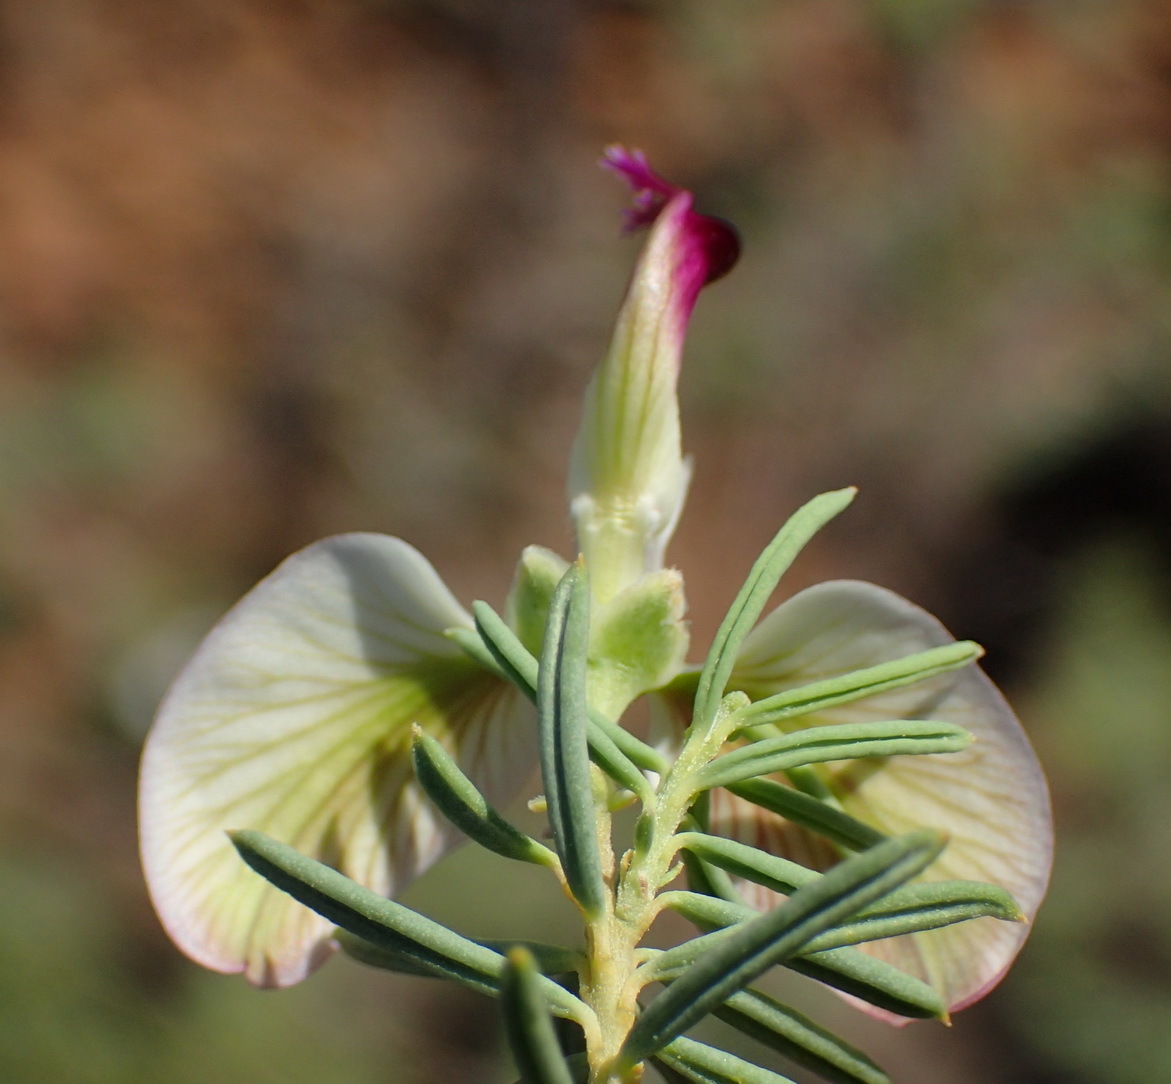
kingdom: Plantae
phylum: Tracheophyta
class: Magnoliopsida
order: Fabales
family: Polygalaceae
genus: Polygala
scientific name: Polygala myrtifolia
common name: Myrtle-leaf milkwort
